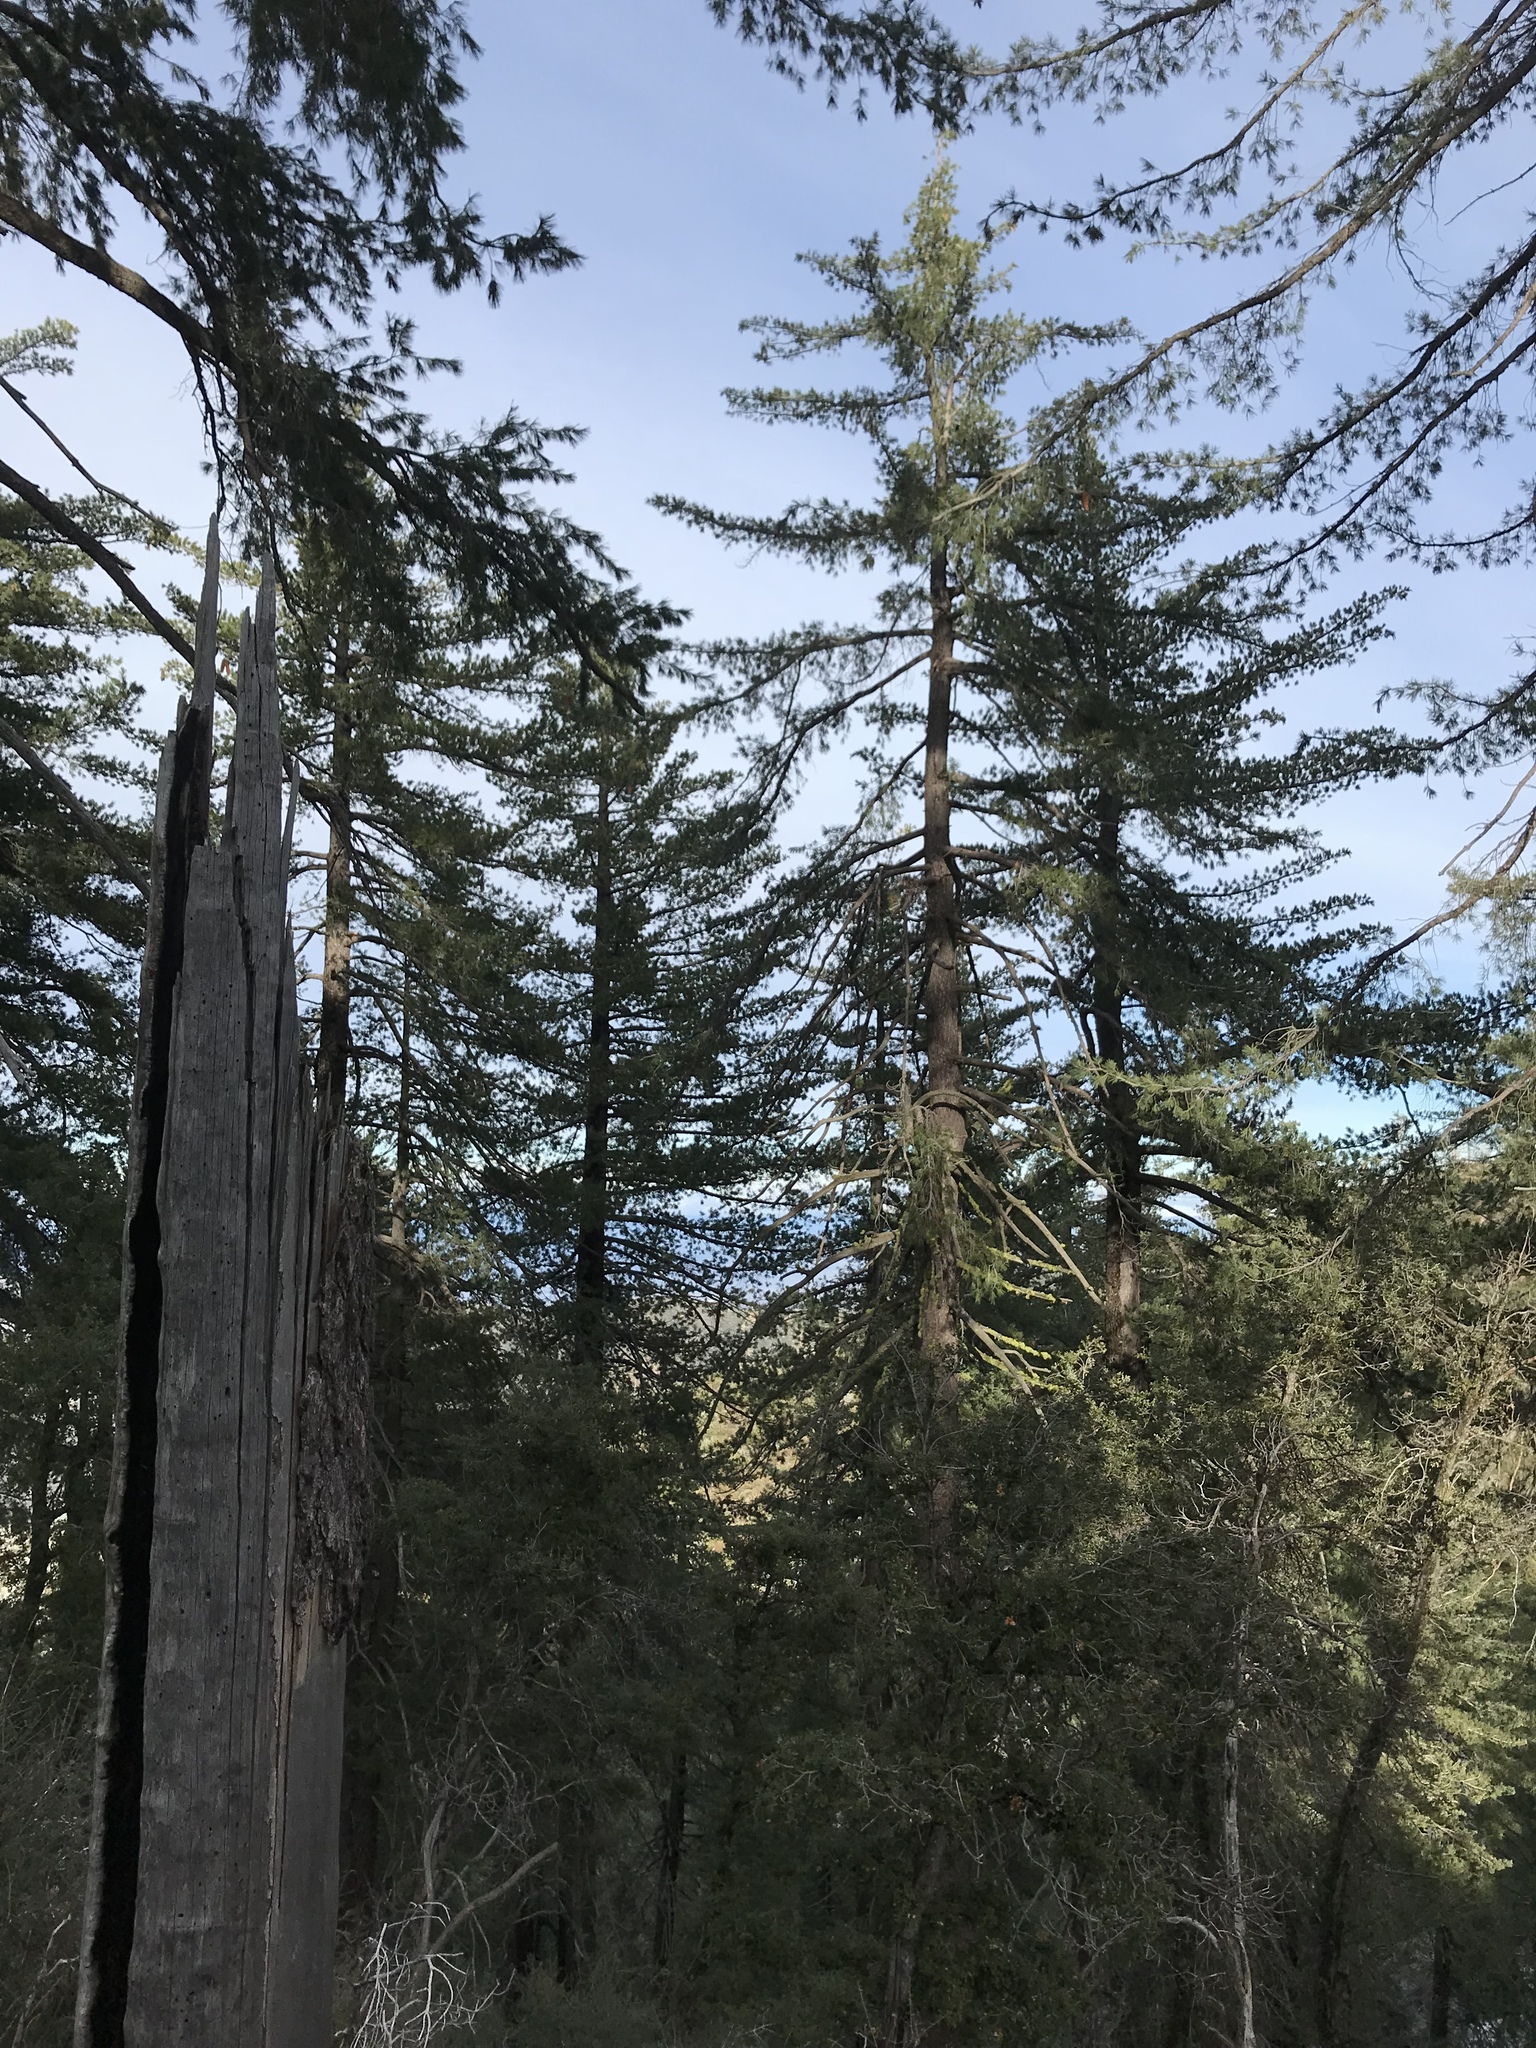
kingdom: Plantae
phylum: Tracheophyta
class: Pinopsida
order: Pinales
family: Pinaceae
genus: Pinus
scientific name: Pinus lambertiana
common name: Sugar pine
